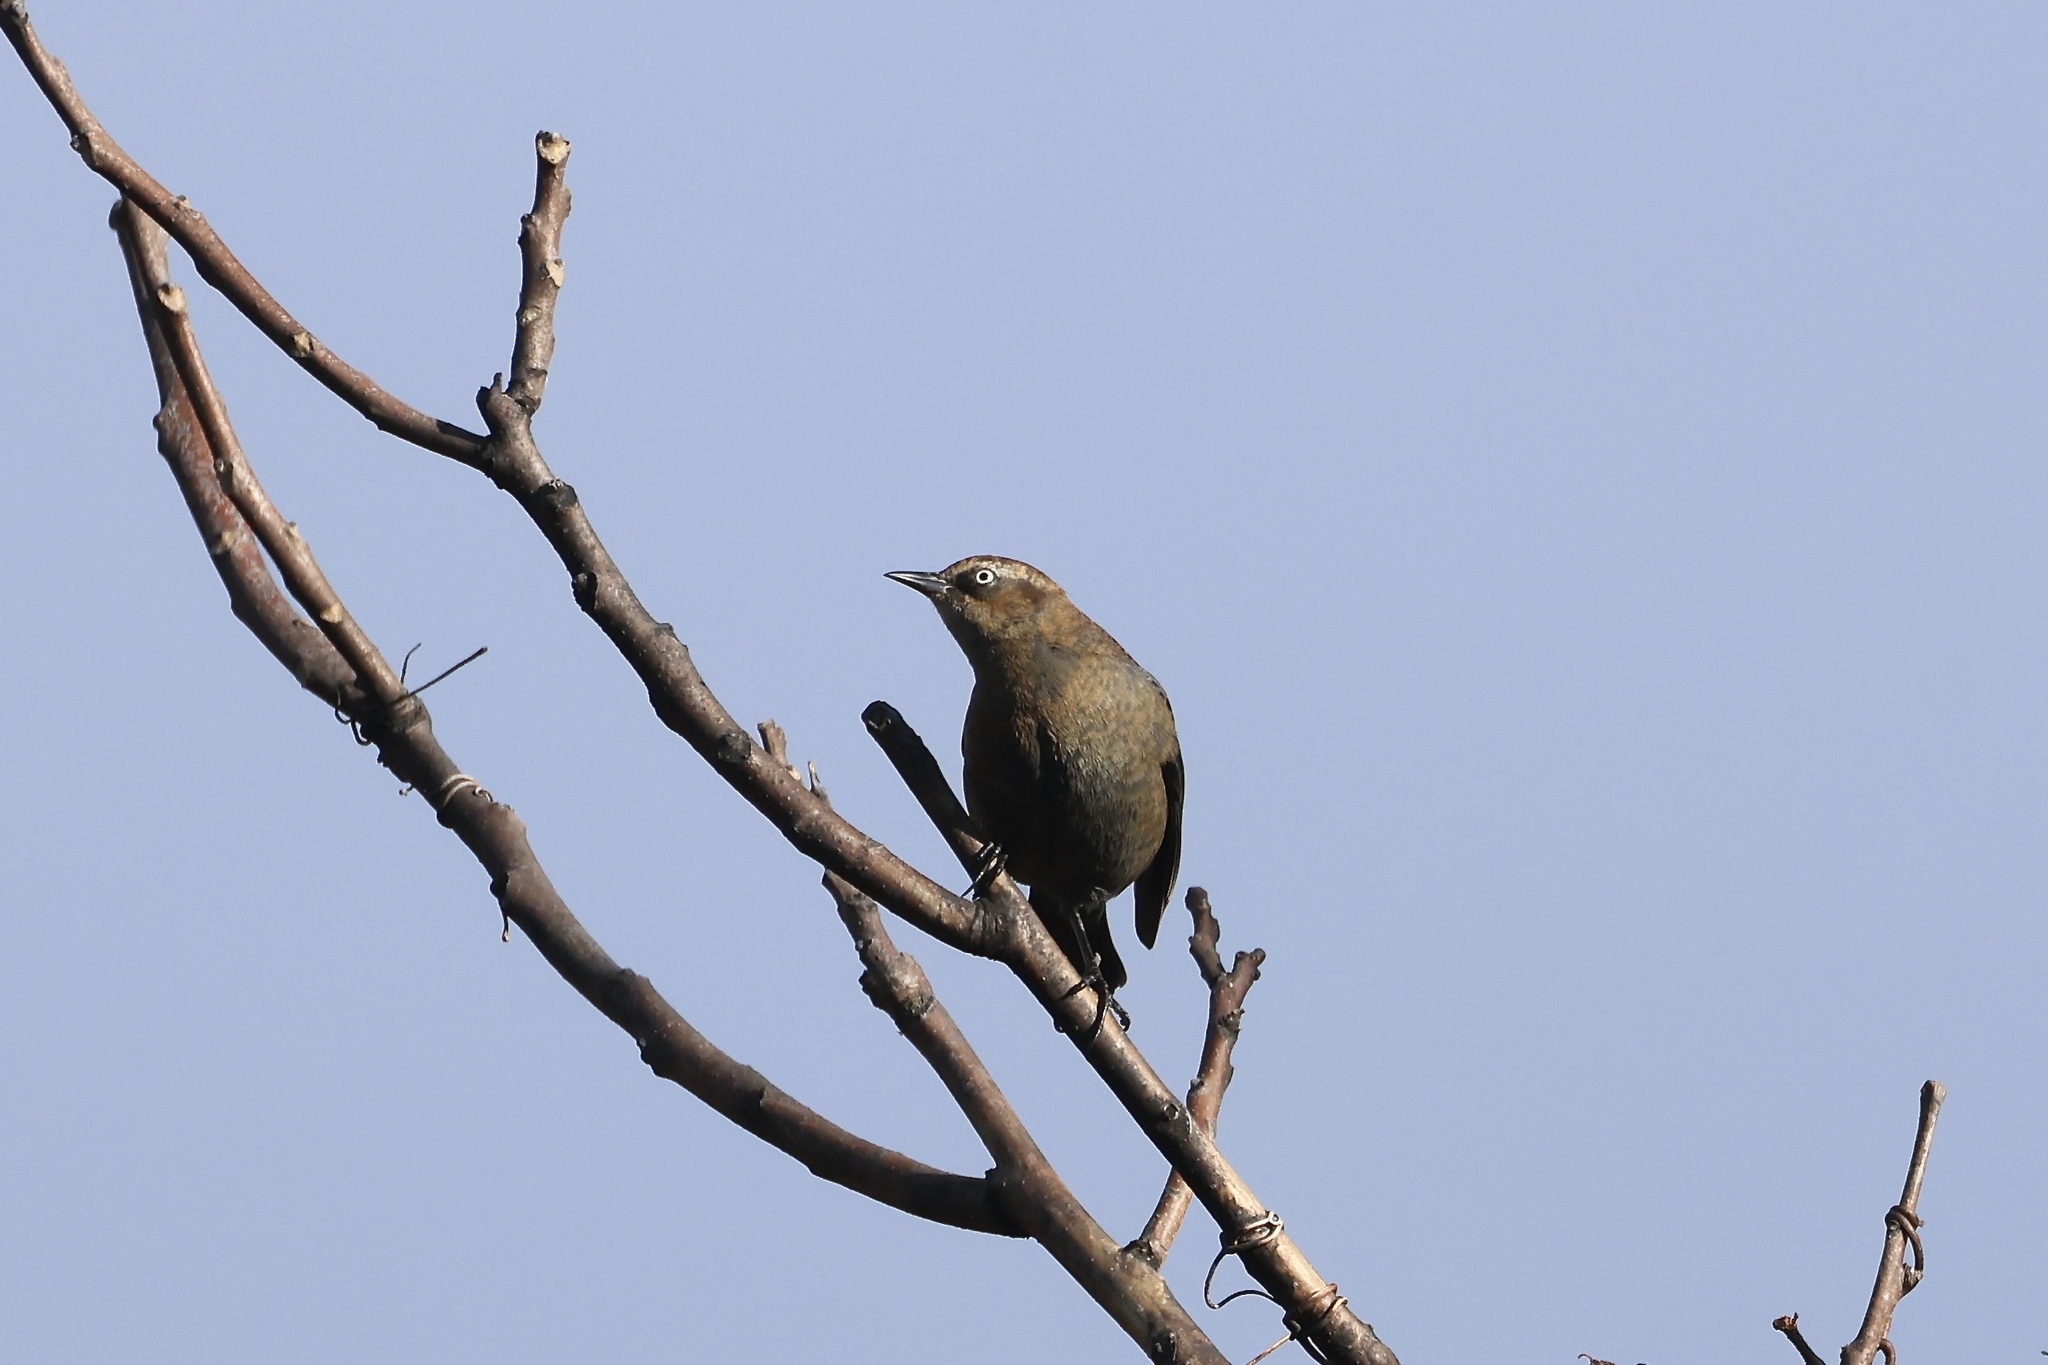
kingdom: Animalia
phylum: Chordata
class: Aves
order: Passeriformes
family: Icteridae
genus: Euphagus
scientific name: Euphagus carolinus
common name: Rusty blackbird
